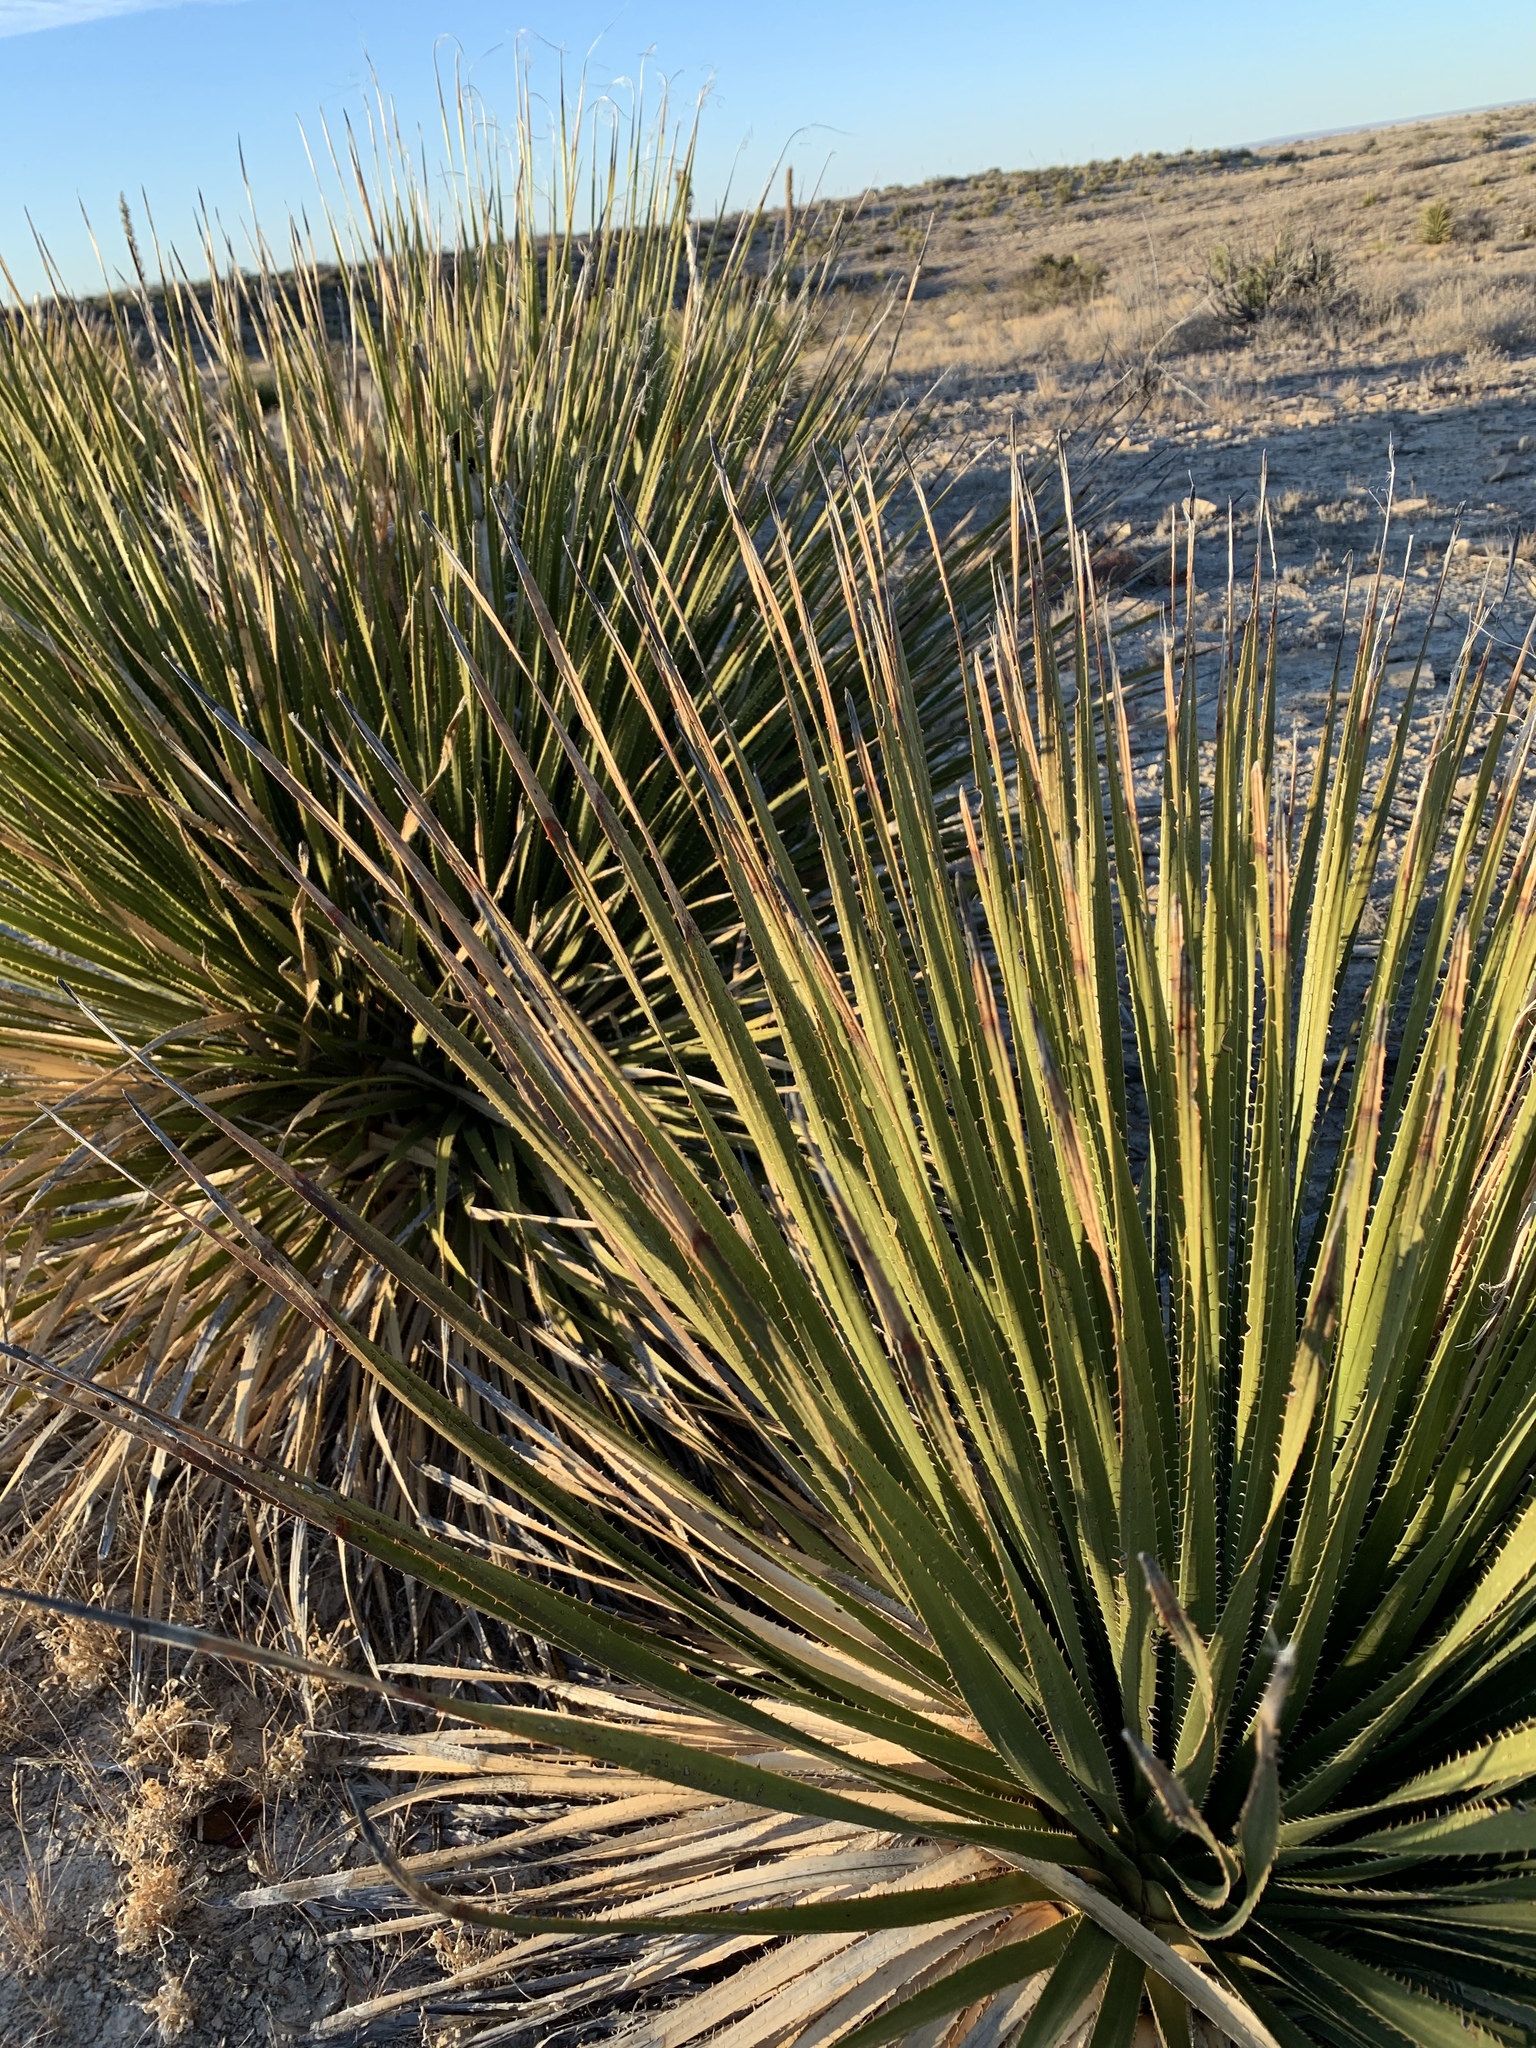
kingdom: Plantae
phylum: Tracheophyta
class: Liliopsida
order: Asparagales
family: Asparagaceae
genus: Dasylirion
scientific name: Dasylirion leiophyllum
